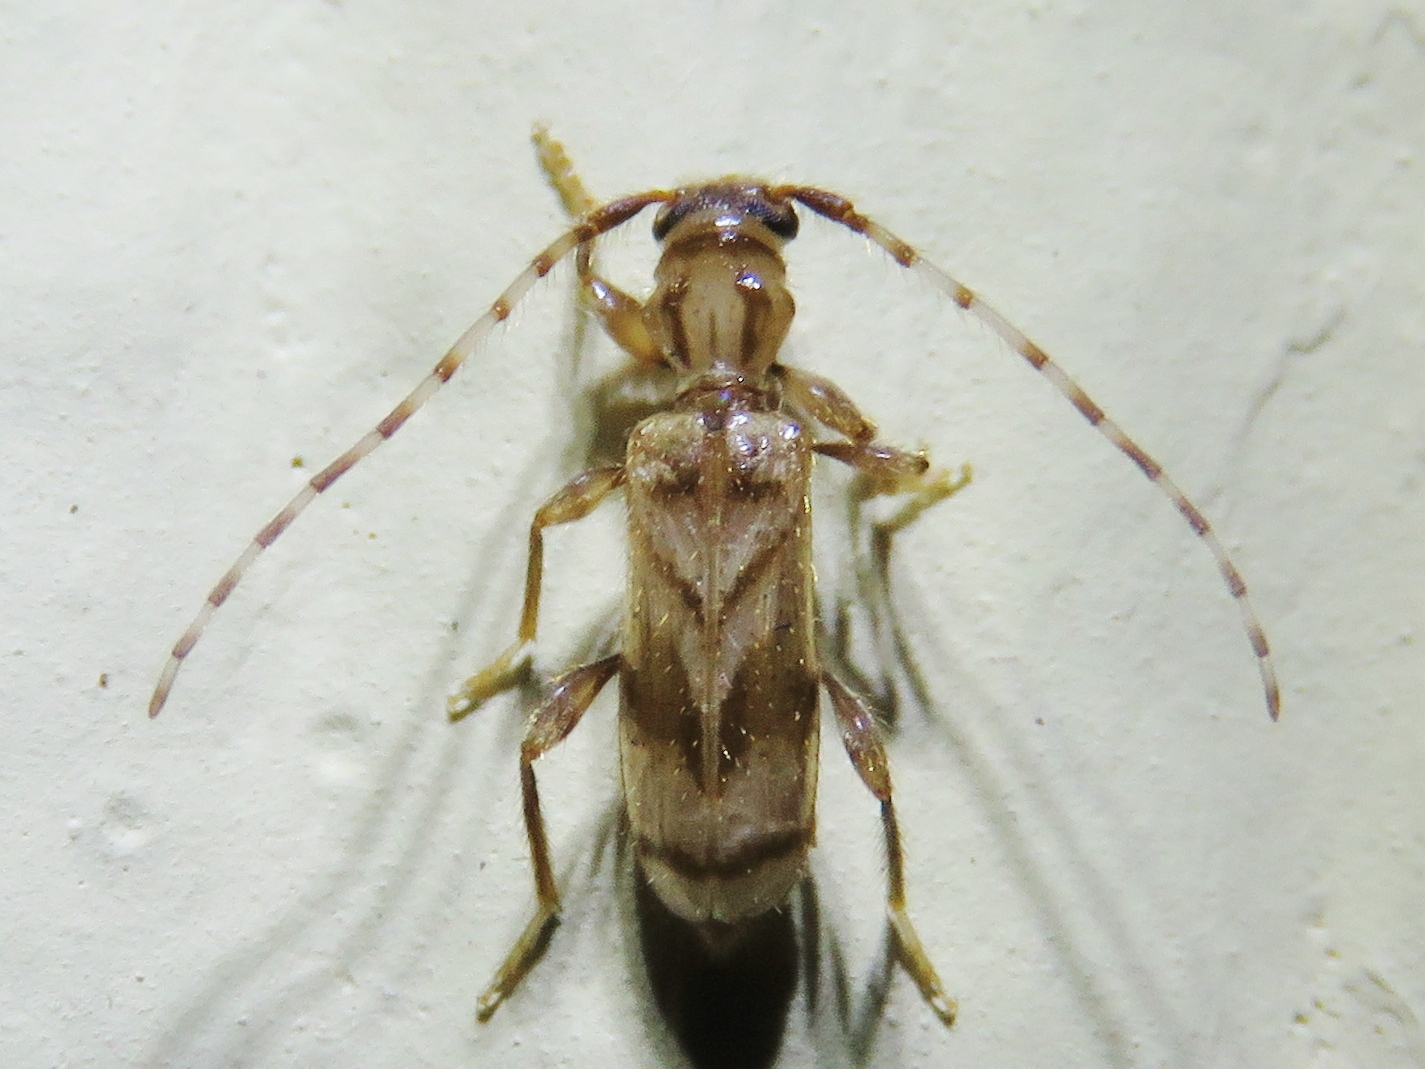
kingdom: Animalia
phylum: Arthropoda
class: Insecta
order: Coleoptera
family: Cerambycidae
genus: Obrium
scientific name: Obrium maculatum
